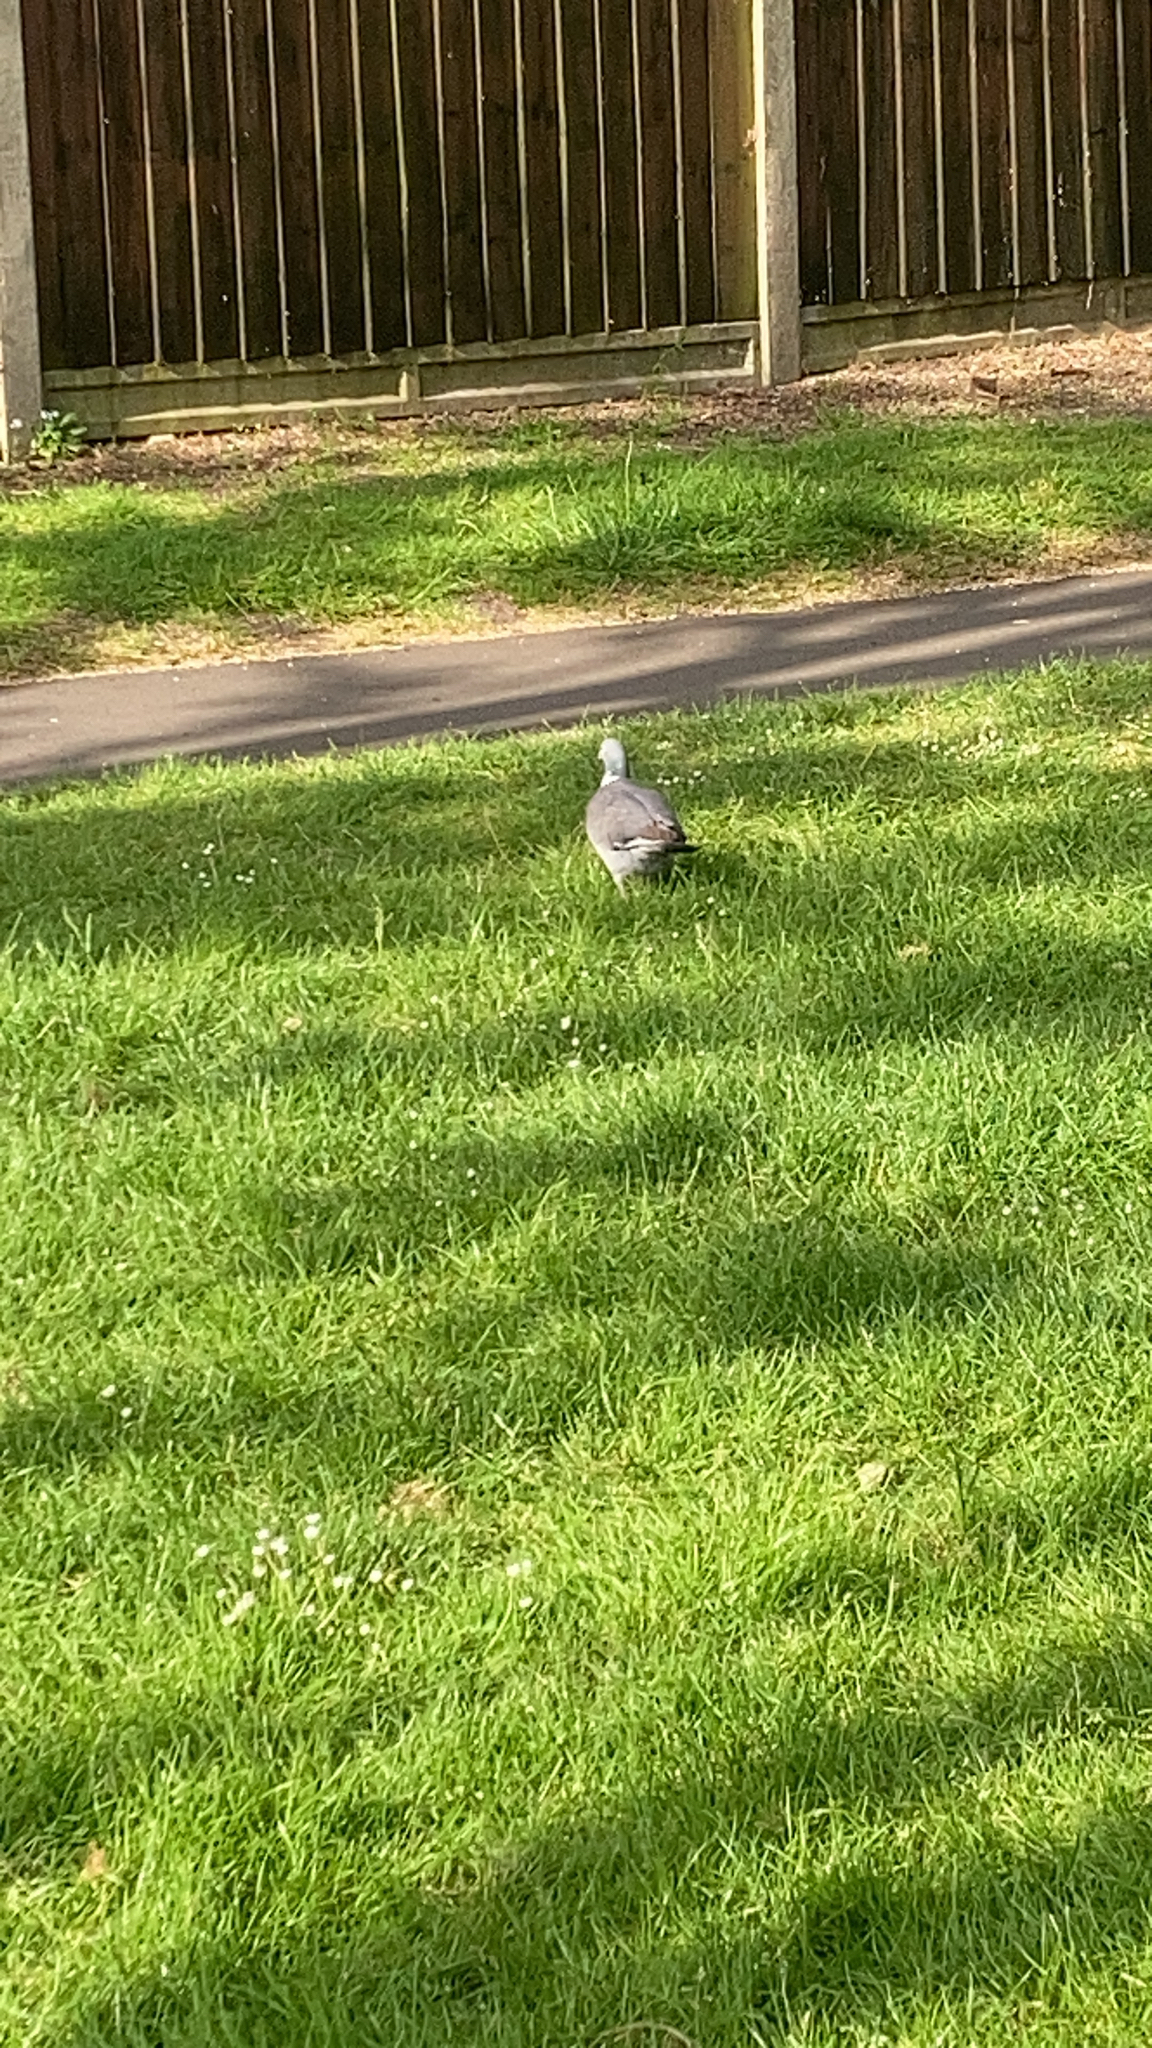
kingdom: Animalia
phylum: Chordata
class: Aves
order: Columbiformes
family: Columbidae
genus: Columba
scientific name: Columba palumbus
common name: Common wood pigeon
